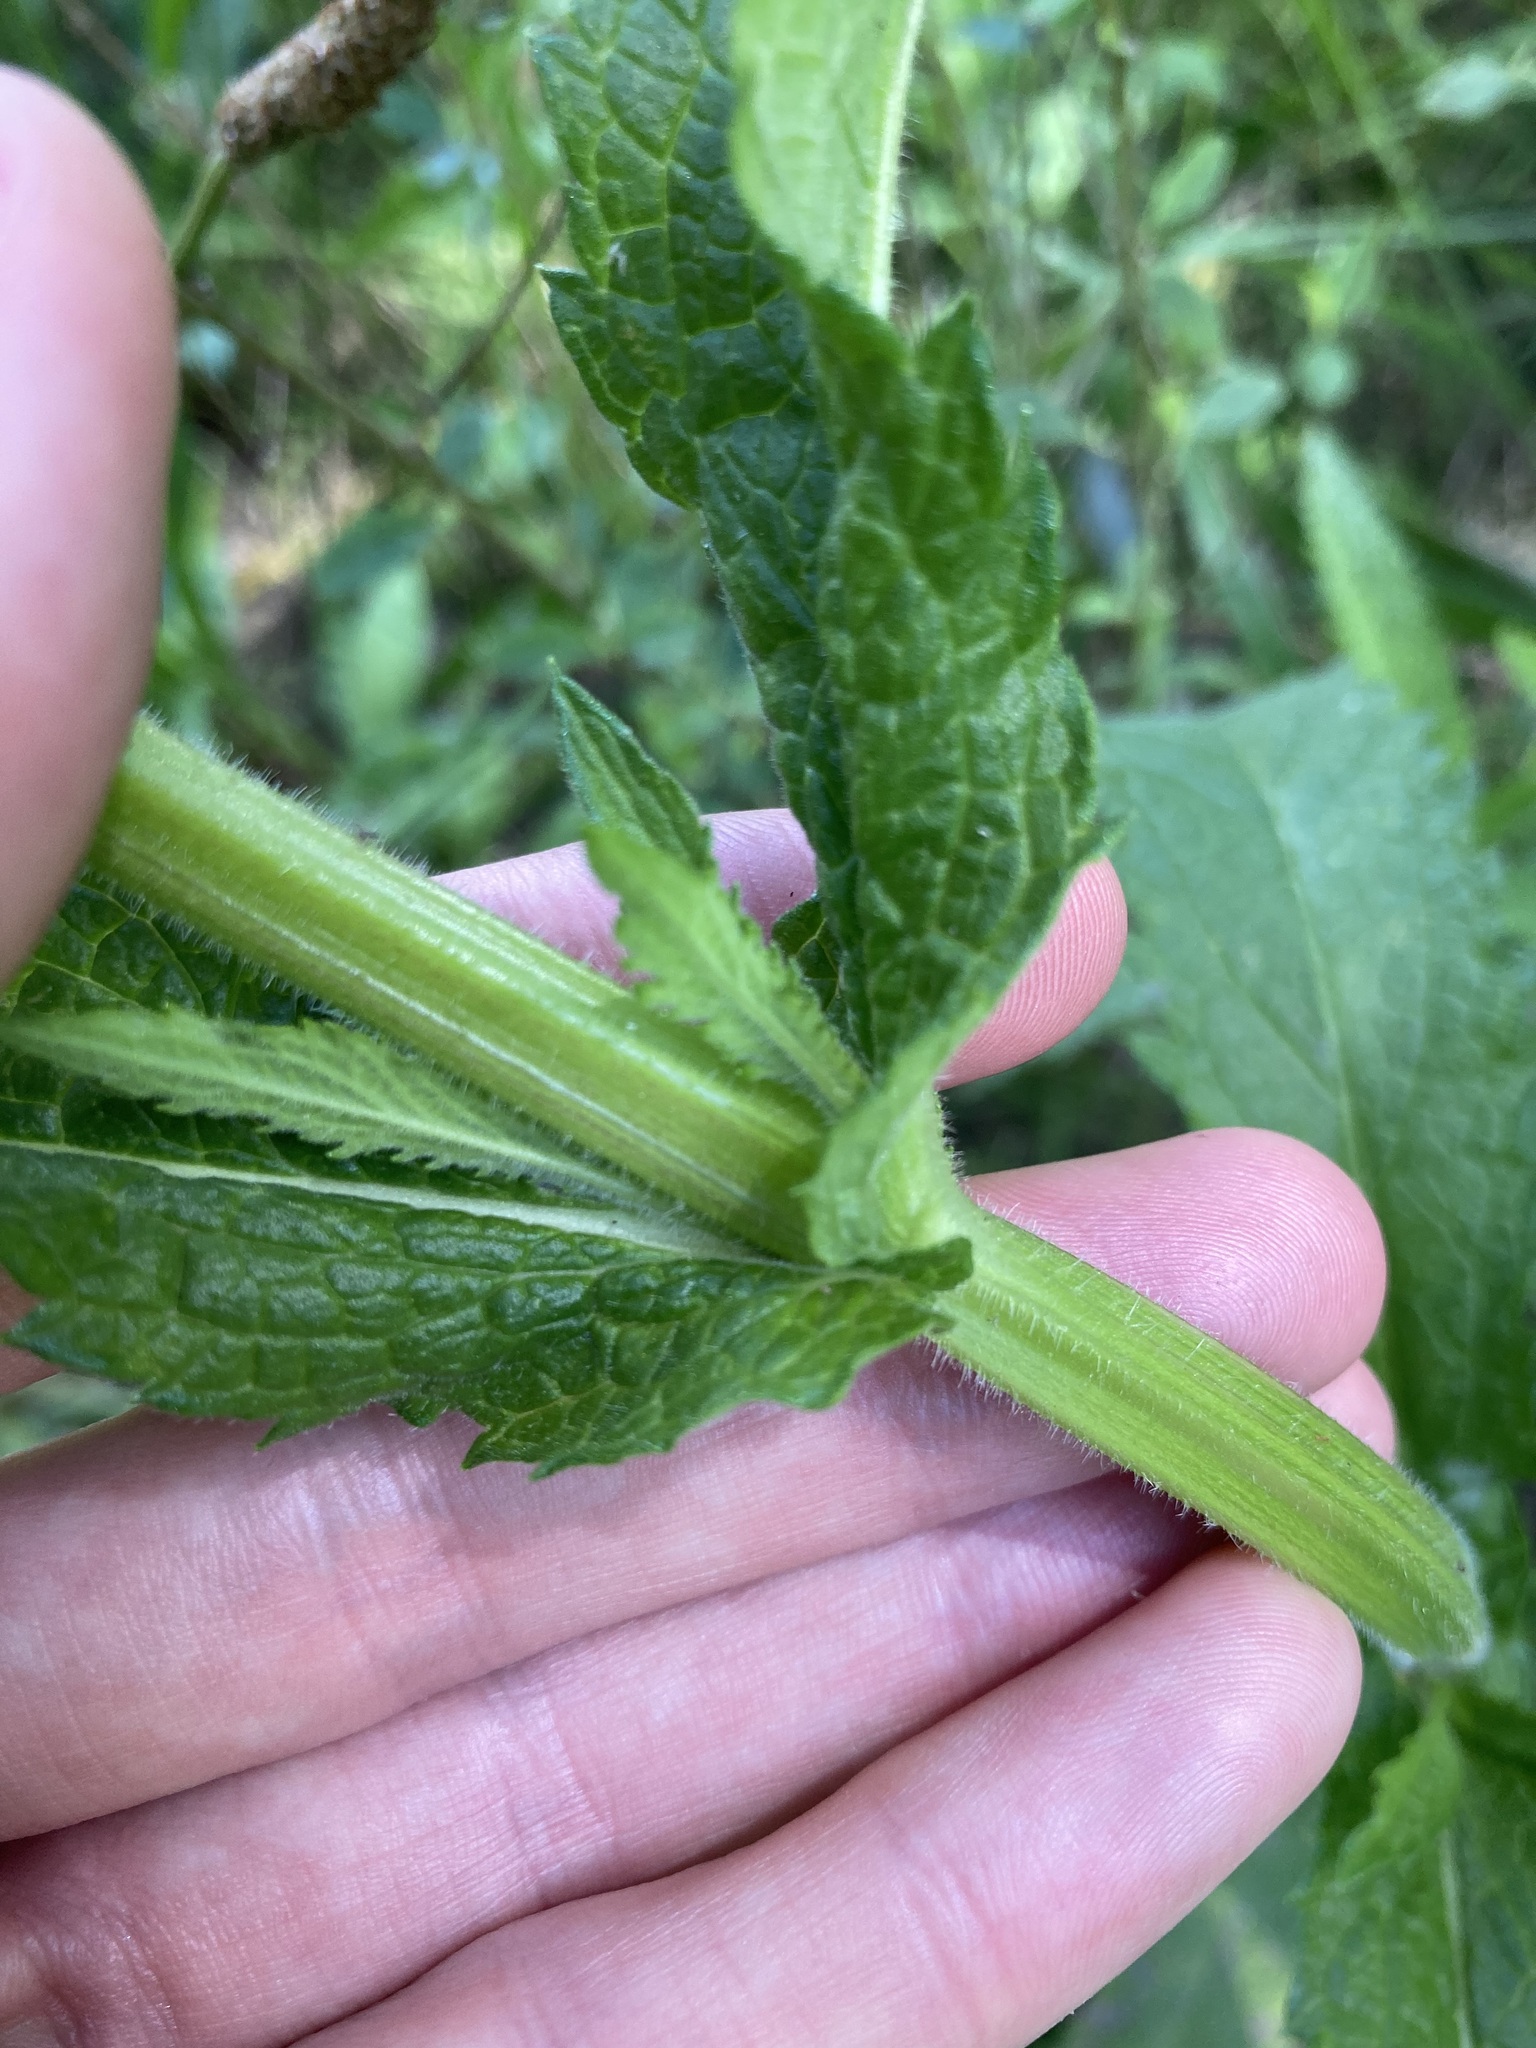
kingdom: Plantae
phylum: Tracheophyta
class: Magnoliopsida
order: Lamiales
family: Verbenaceae
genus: Verbena
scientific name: Verbena bonariensis
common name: Purpletop vervain
